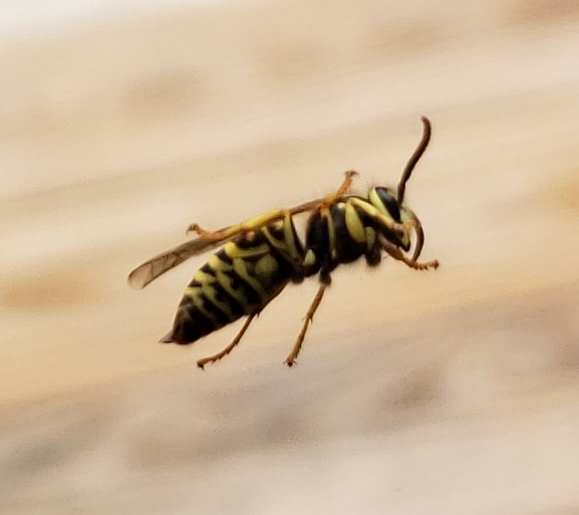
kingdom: Animalia
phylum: Arthropoda
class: Insecta
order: Hymenoptera
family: Vespidae
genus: Vespula
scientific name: Vespula squamosa
